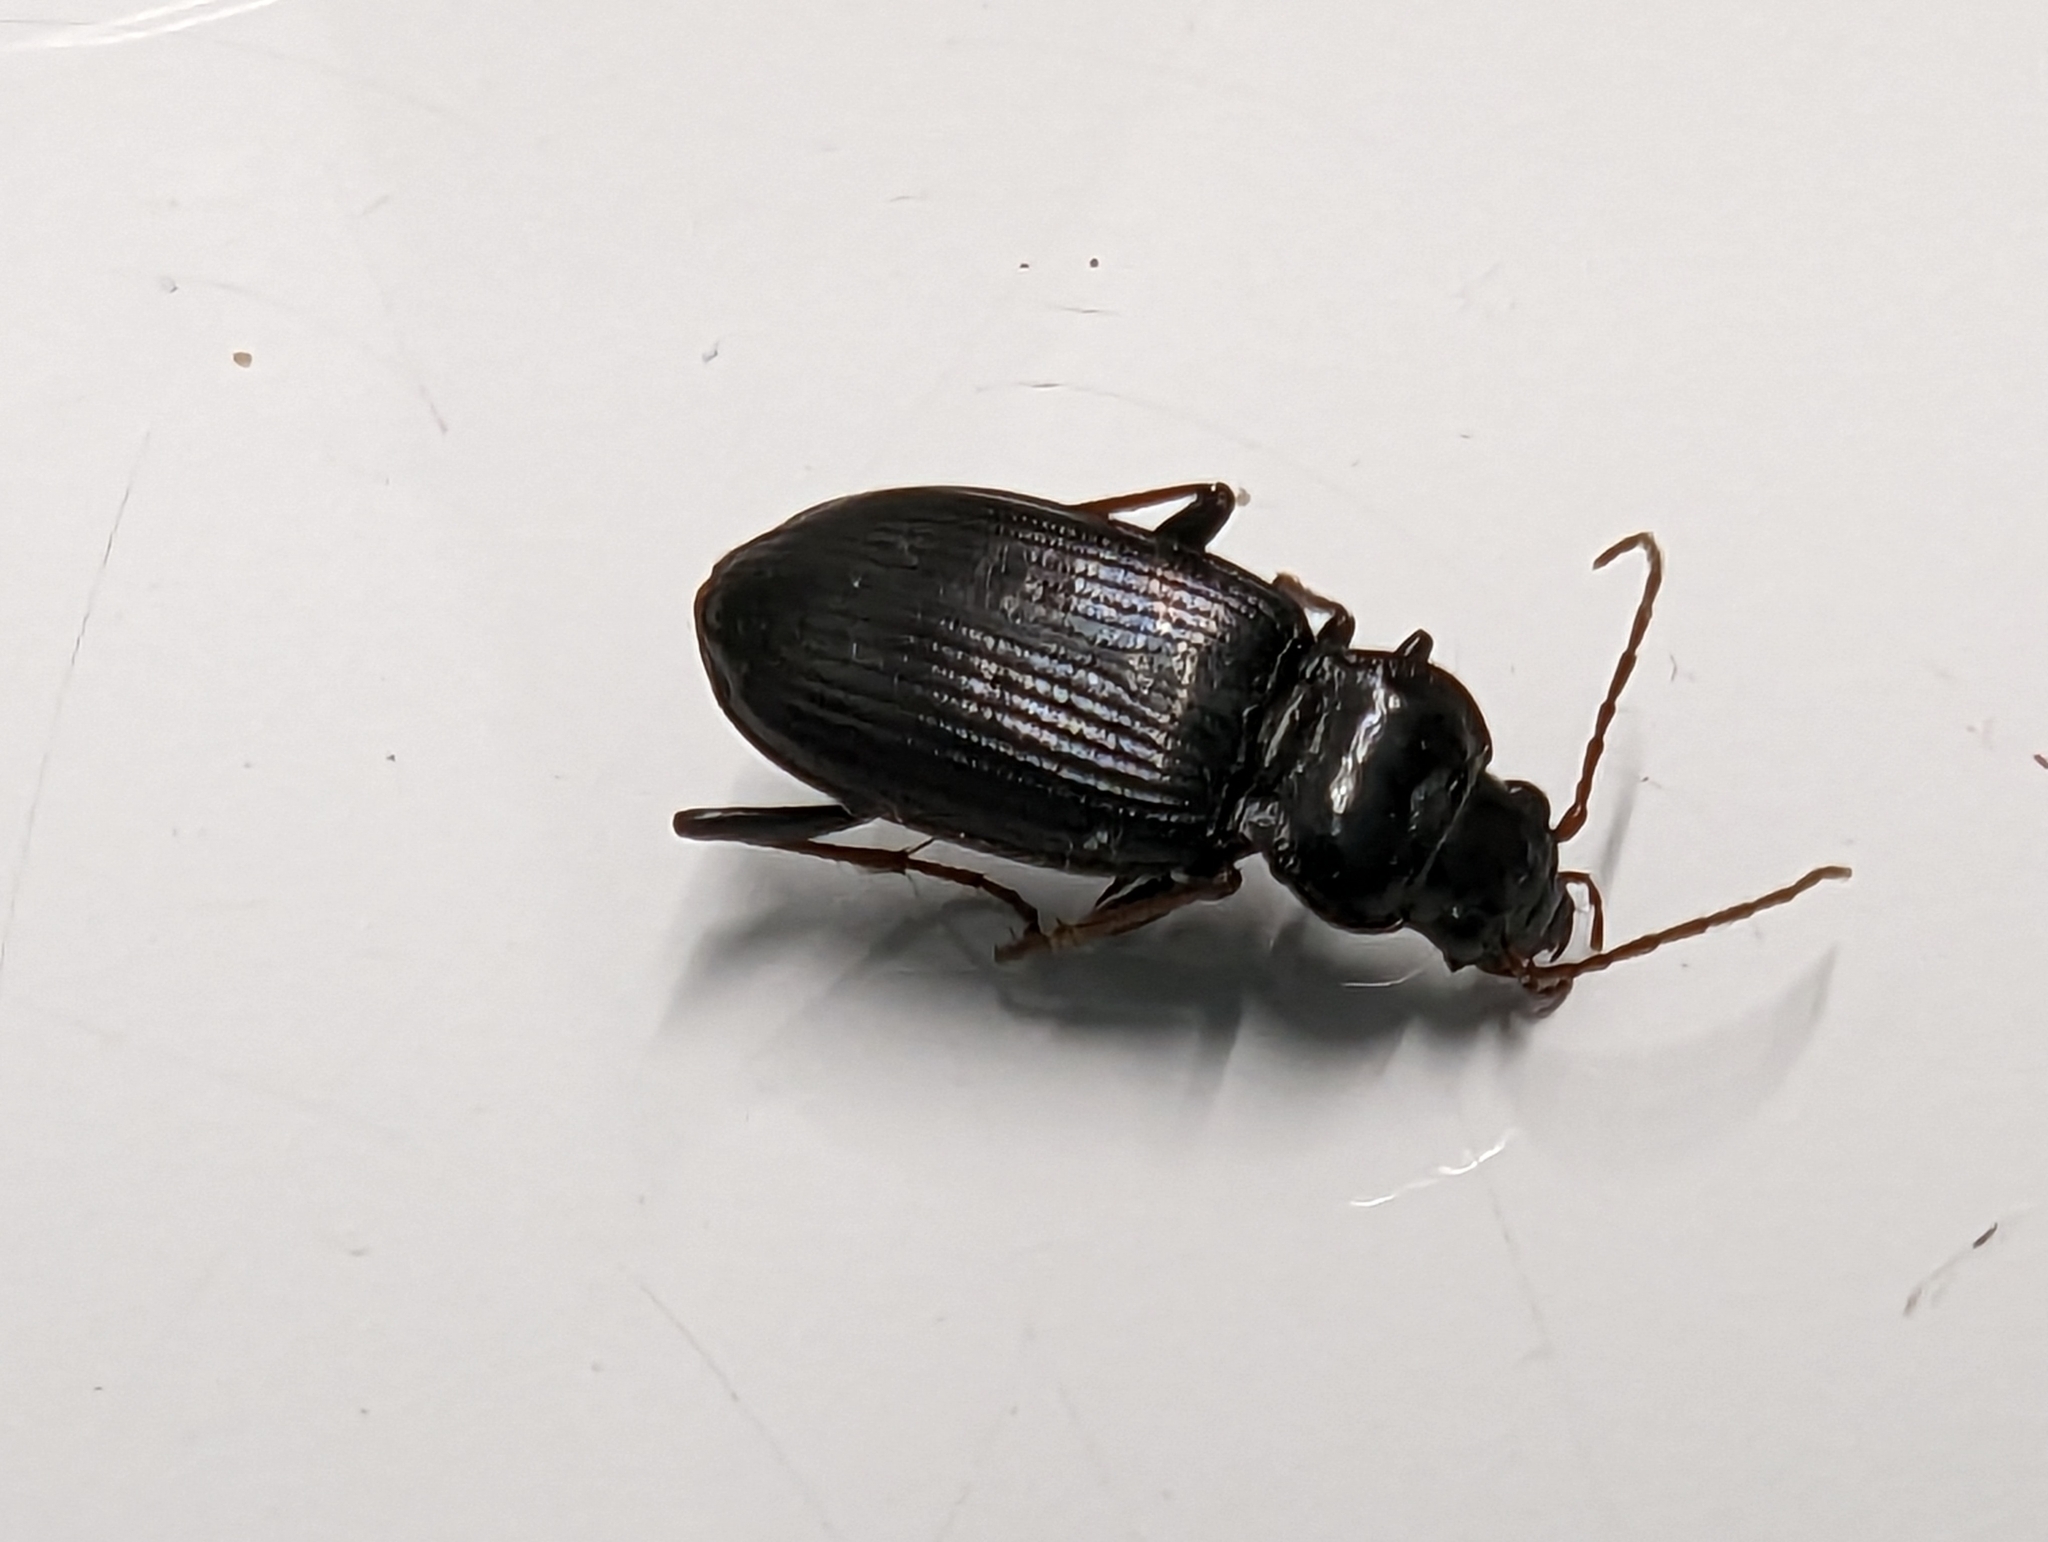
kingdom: Animalia
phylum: Arthropoda
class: Insecta
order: Coleoptera
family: Carabidae
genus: Nebria
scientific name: Nebria brevicollis
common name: Short-necked gazelle beetle
